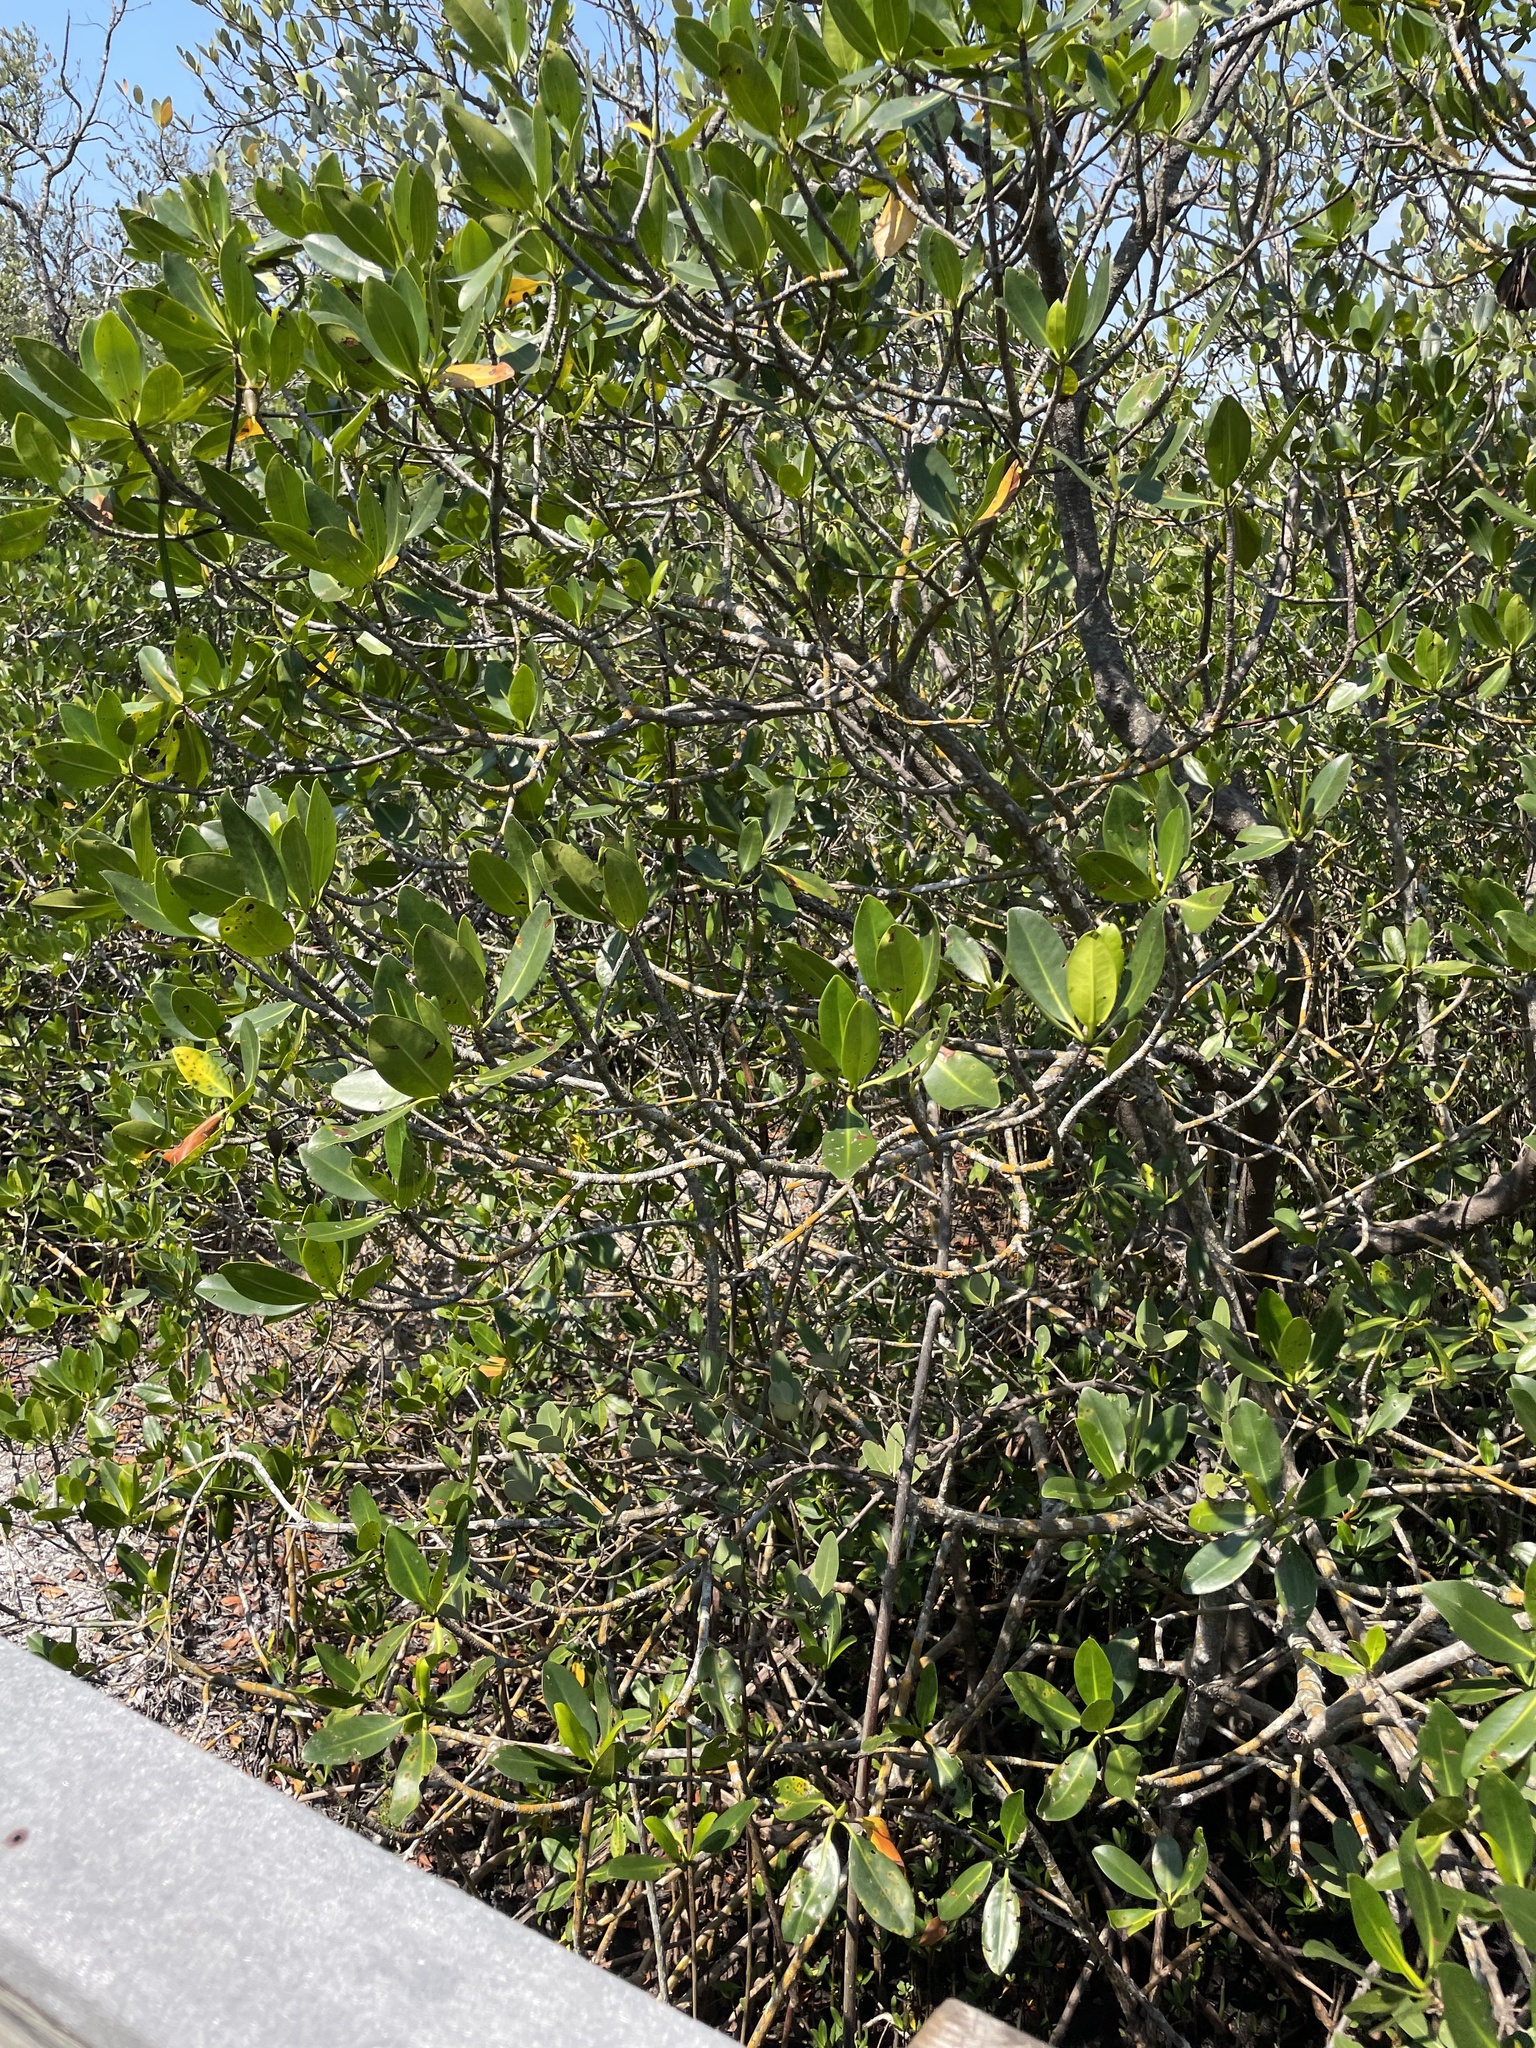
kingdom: Plantae
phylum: Tracheophyta
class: Magnoliopsida
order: Malpighiales
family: Rhizophoraceae
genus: Rhizophora
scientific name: Rhizophora mangle
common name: Red mangrove
